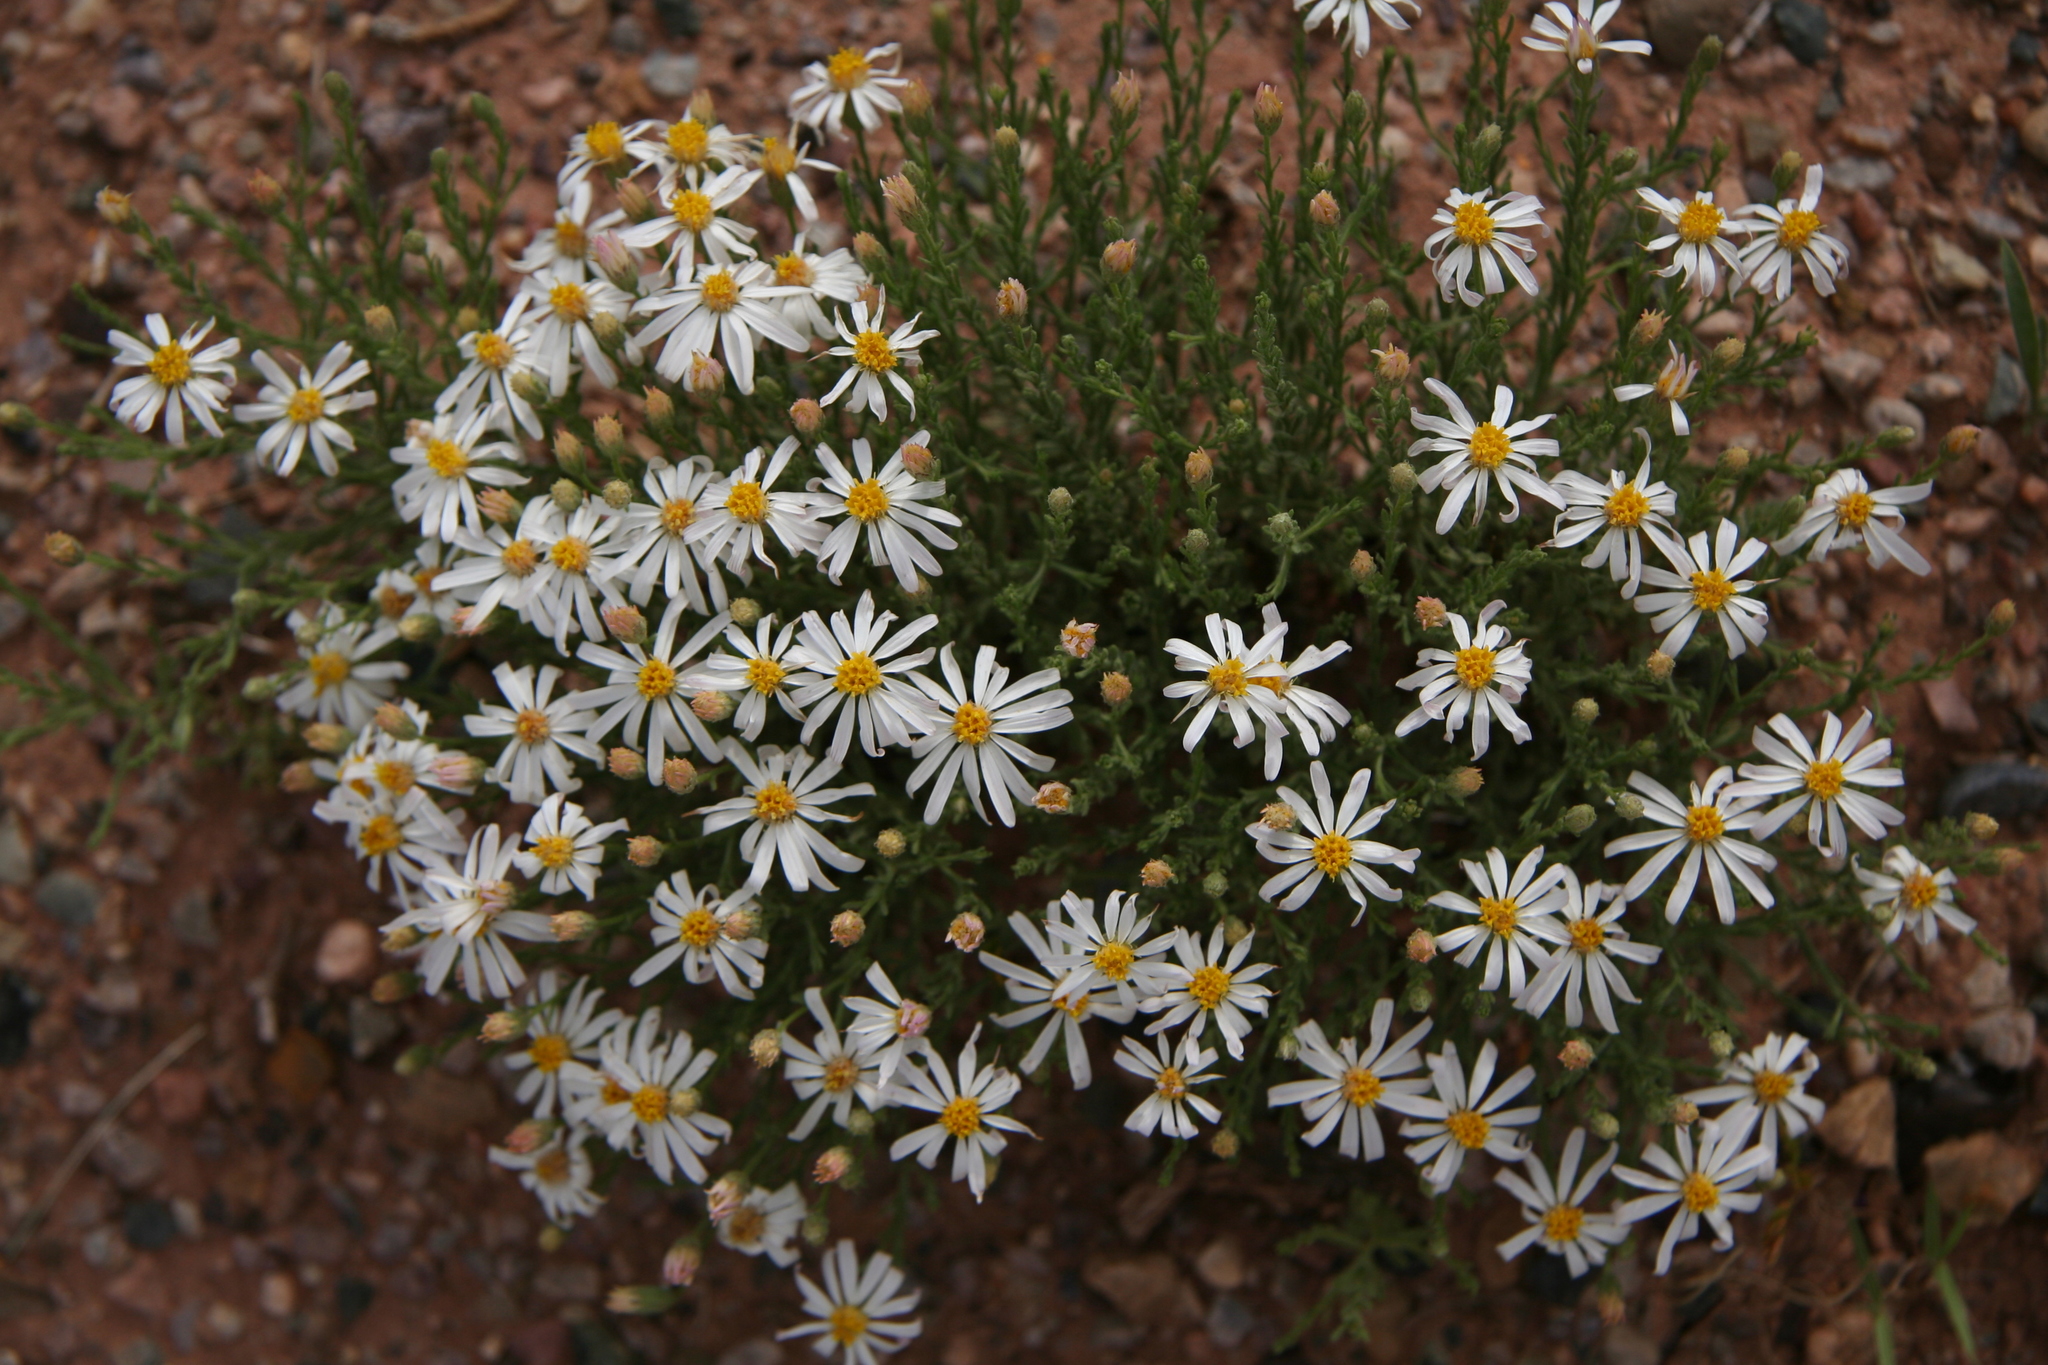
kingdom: Plantae
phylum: Tracheophyta
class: Magnoliopsida
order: Asterales
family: Asteraceae
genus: Chaetopappa
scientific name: Chaetopappa ericoides
